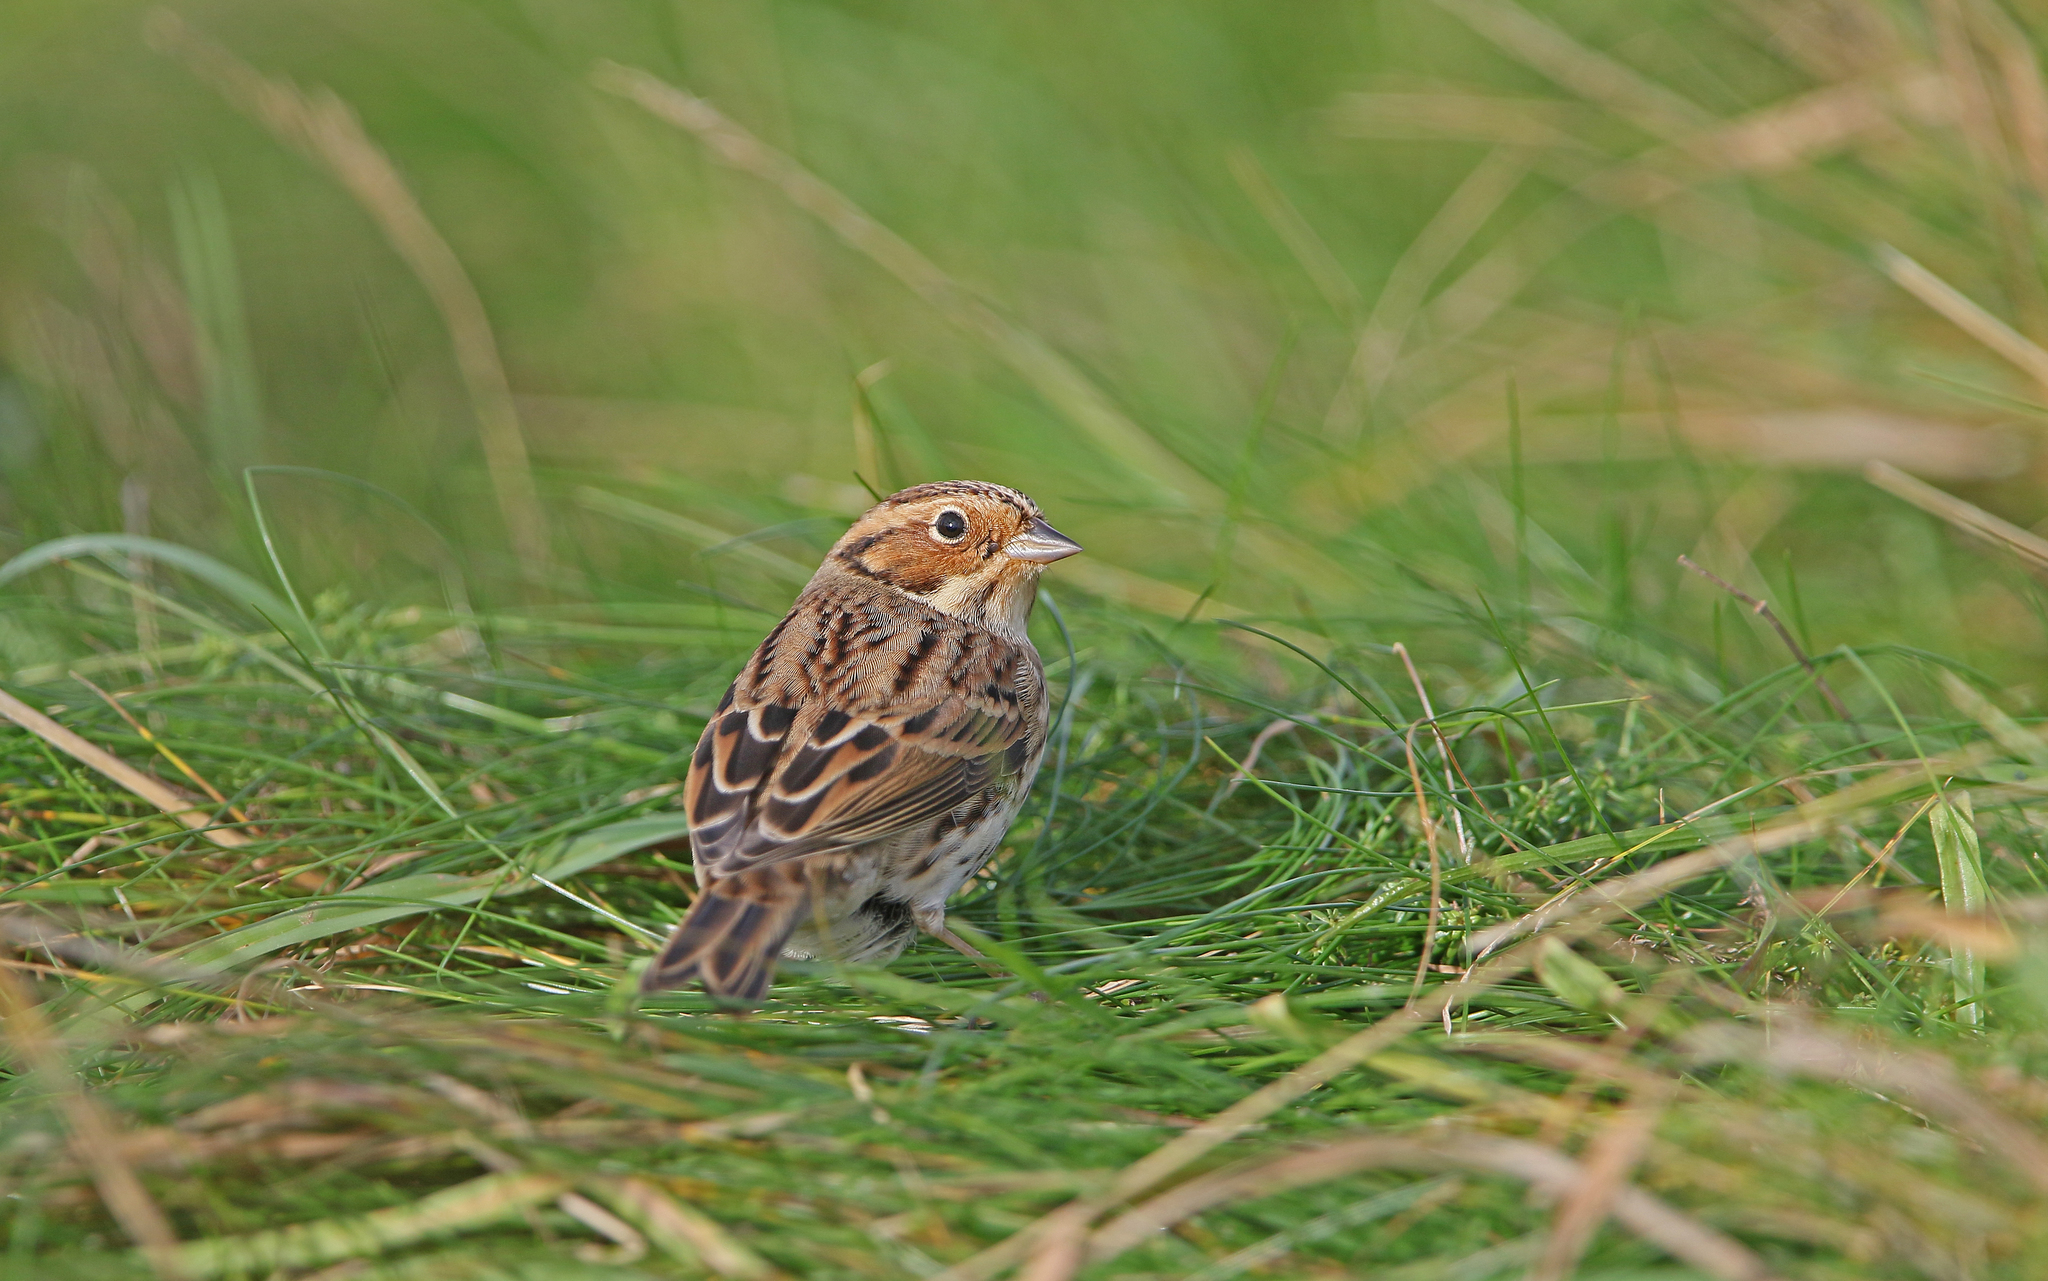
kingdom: Animalia
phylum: Chordata
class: Aves
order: Passeriformes
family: Emberizidae
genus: Emberiza
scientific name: Emberiza pusilla
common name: Little bunting
